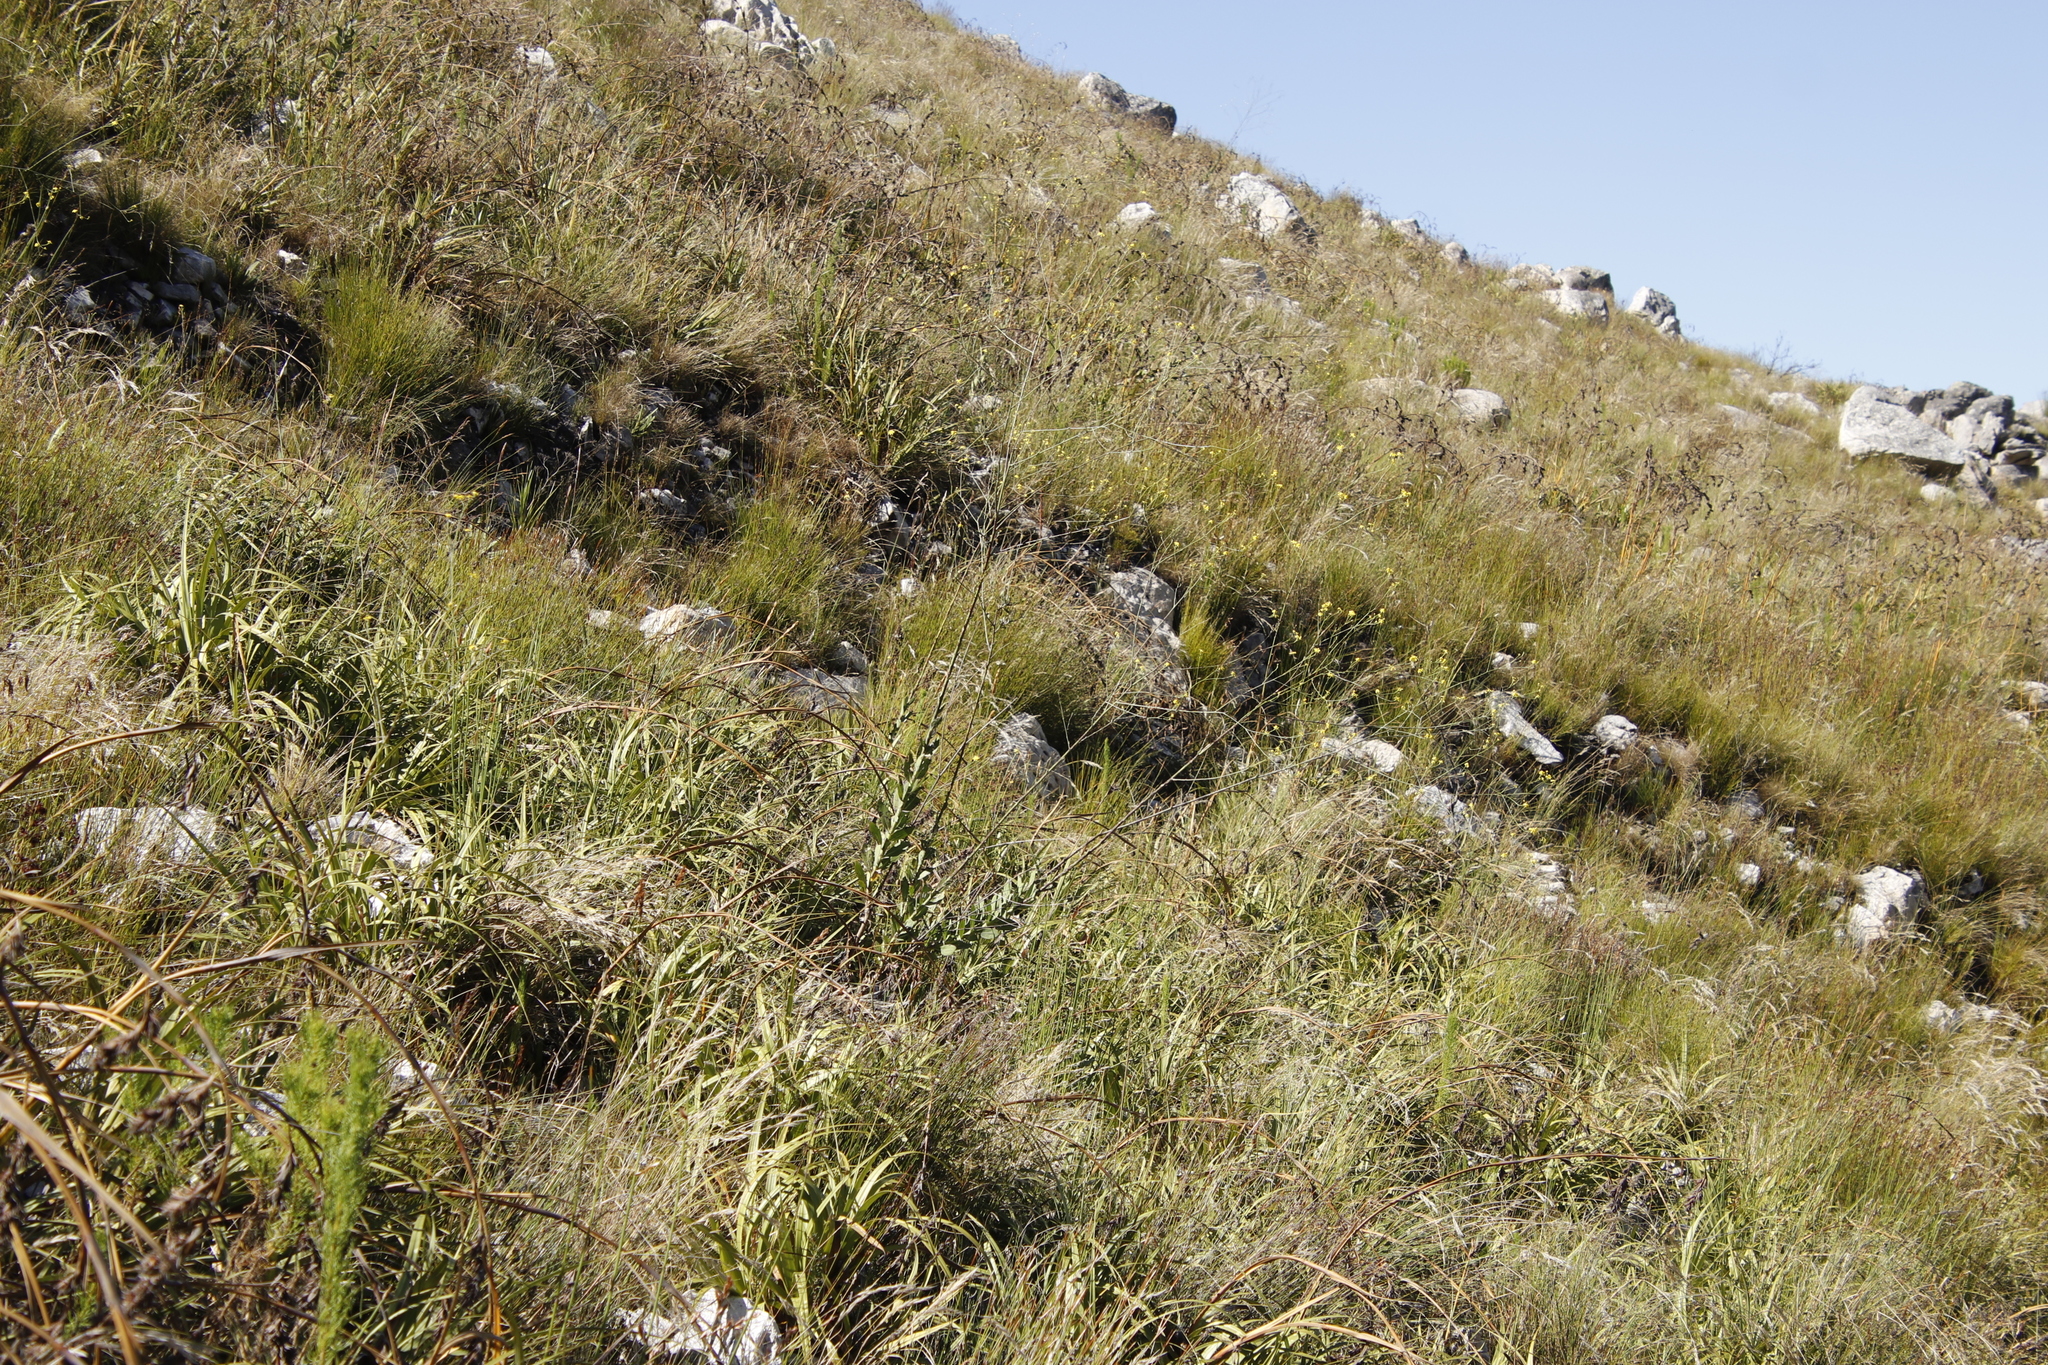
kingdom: Plantae
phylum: Tracheophyta
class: Magnoliopsida
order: Asterales
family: Asteraceae
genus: Othonna
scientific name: Othonna quinquedentata
